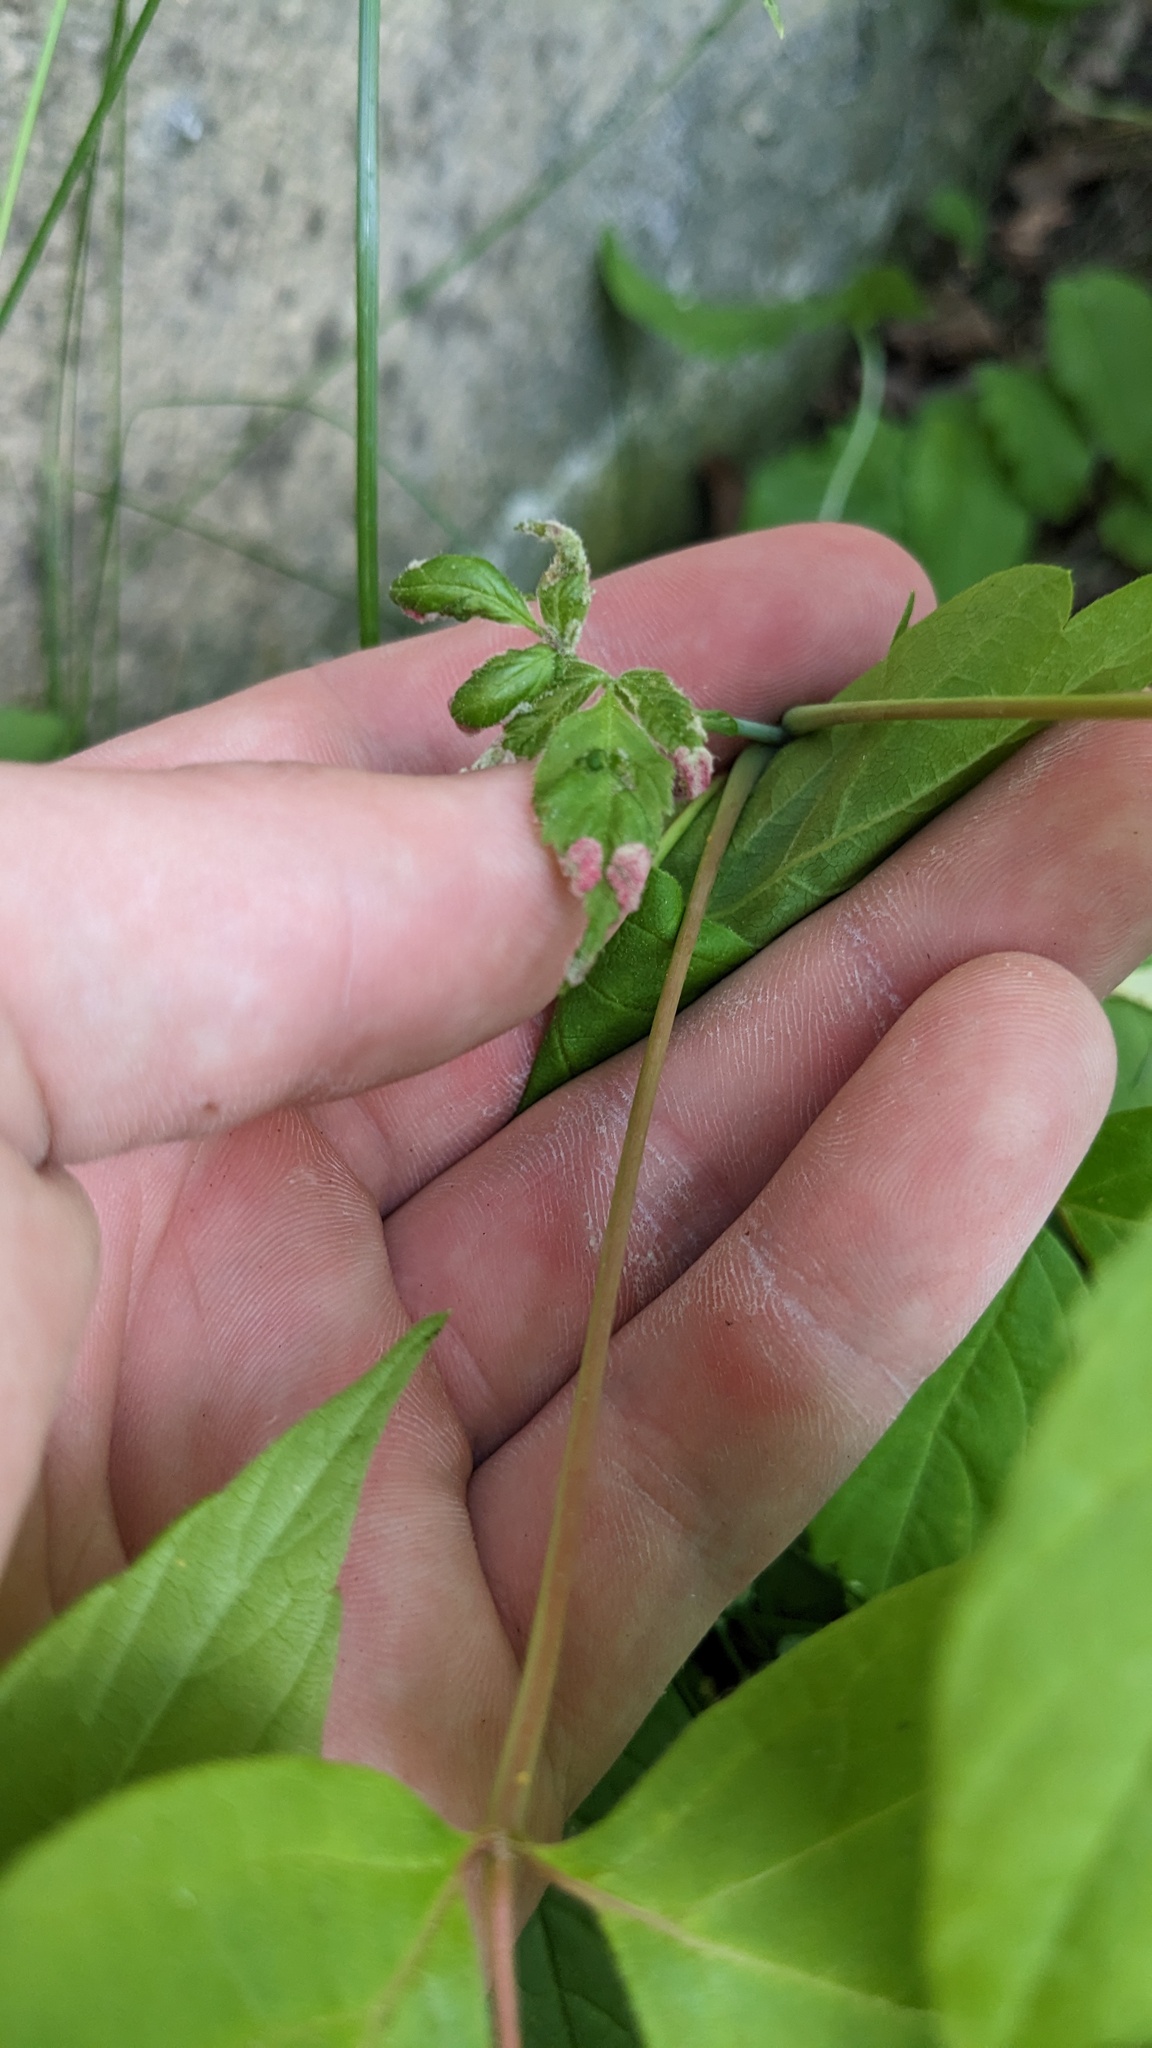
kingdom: Animalia
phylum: Arthropoda
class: Arachnida
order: Trombidiformes
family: Eriophyidae
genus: Aceria
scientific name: Aceria
